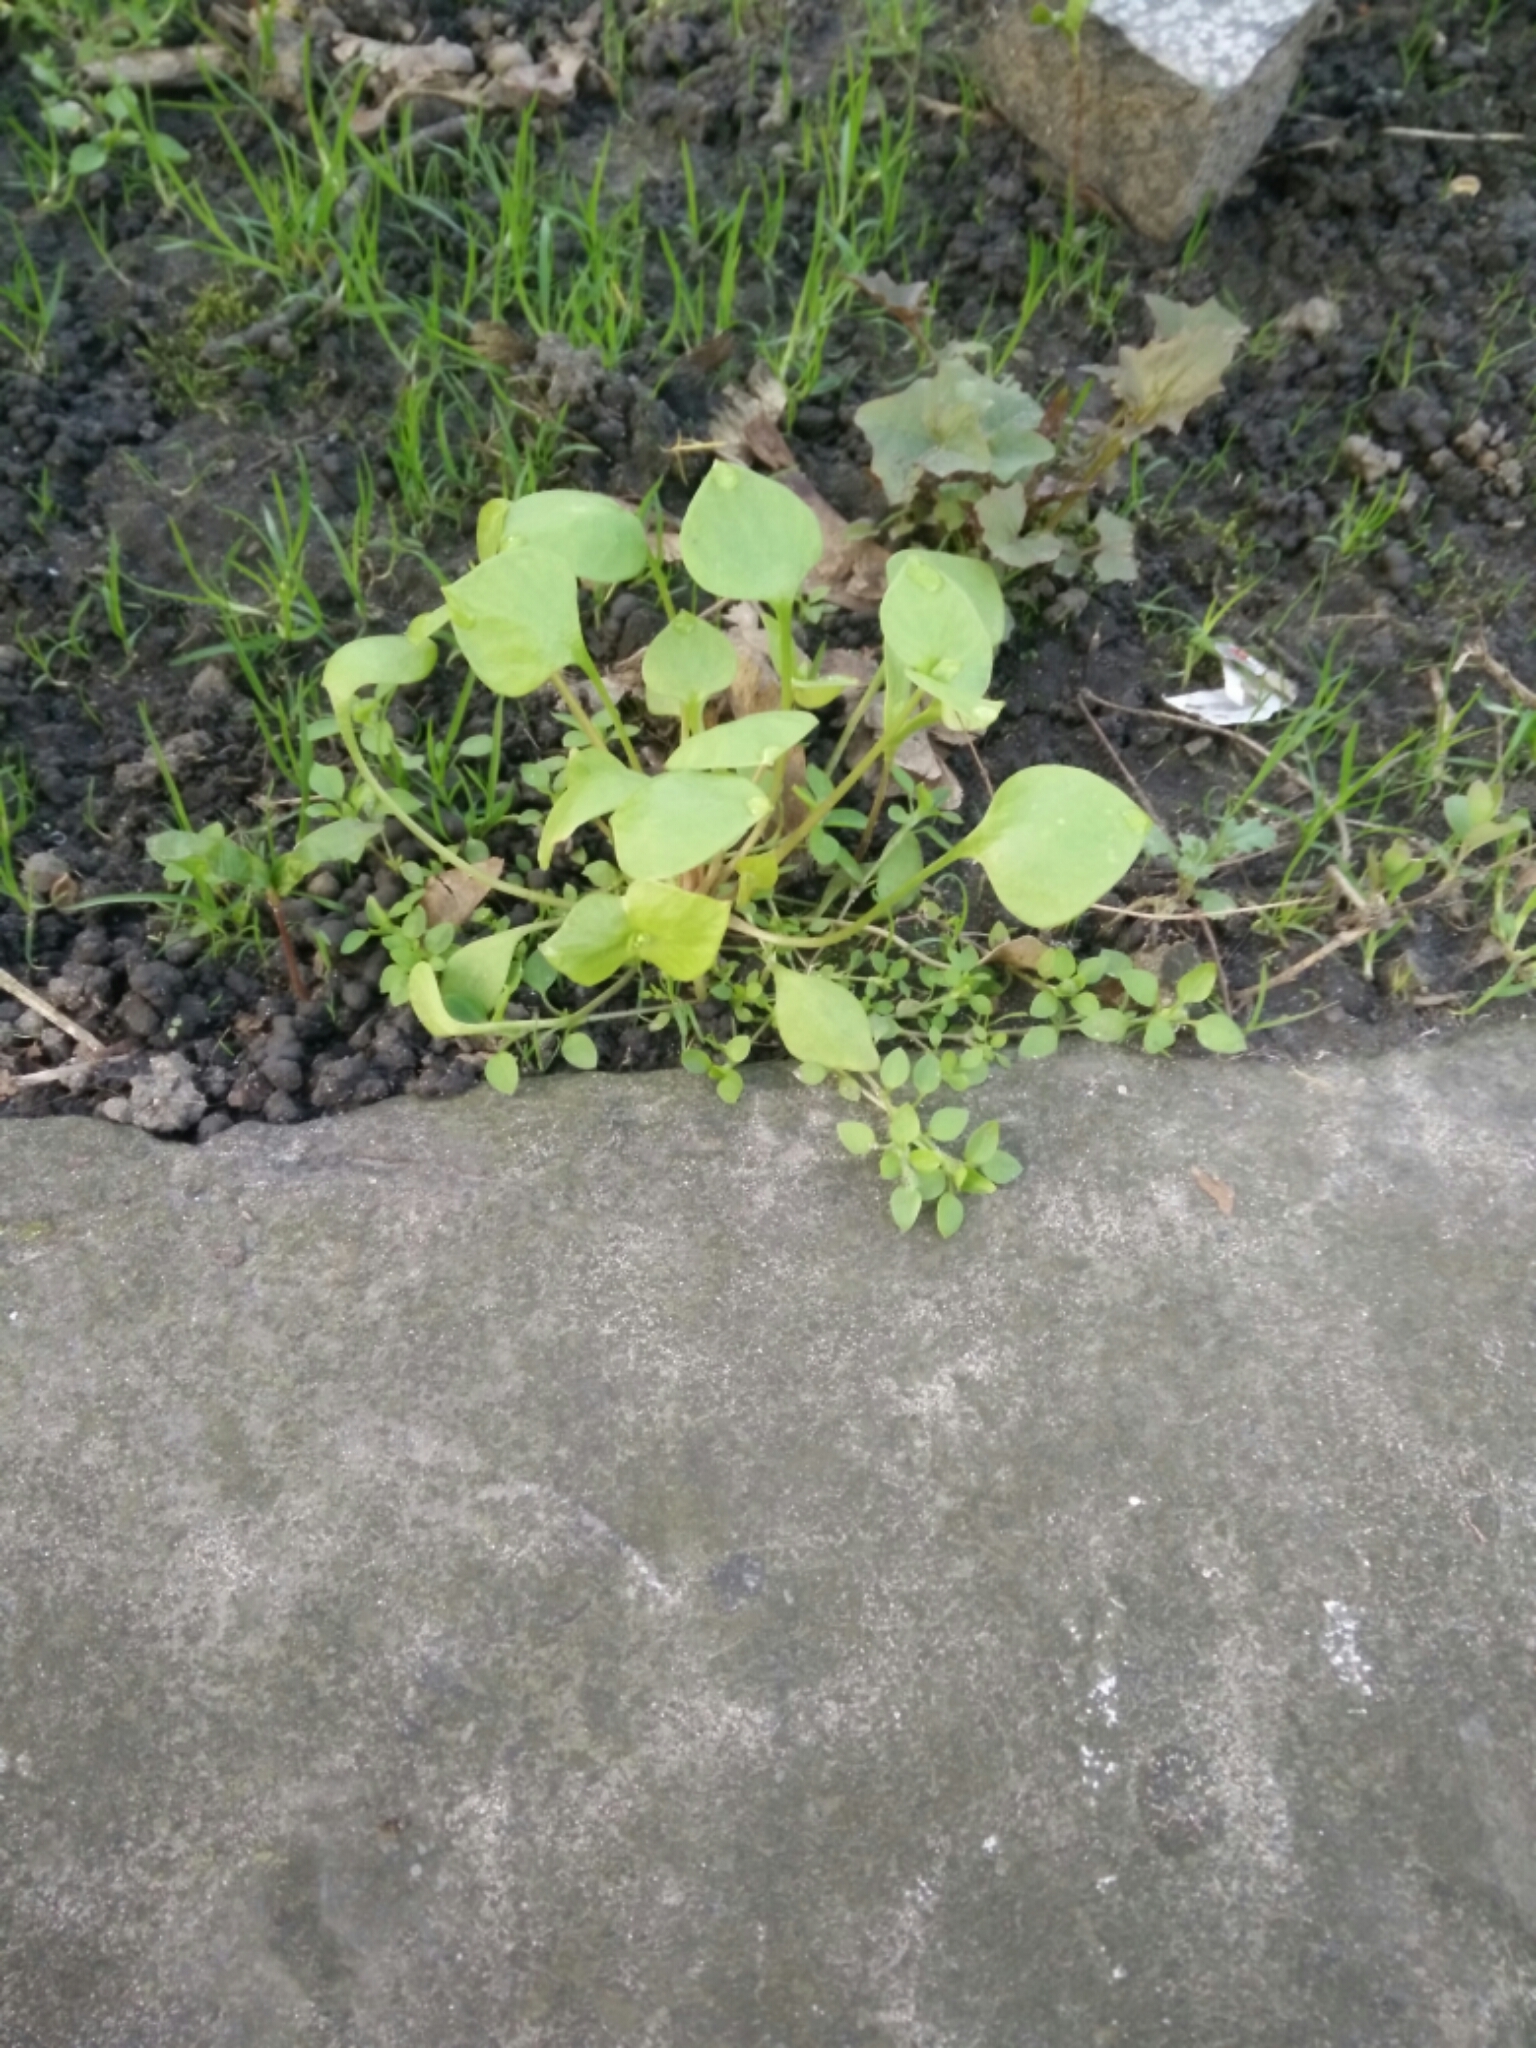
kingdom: Plantae
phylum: Tracheophyta
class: Magnoliopsida
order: Caryophyllales
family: Montiaceae
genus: Claytonia
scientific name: Claytonia perfoliata
